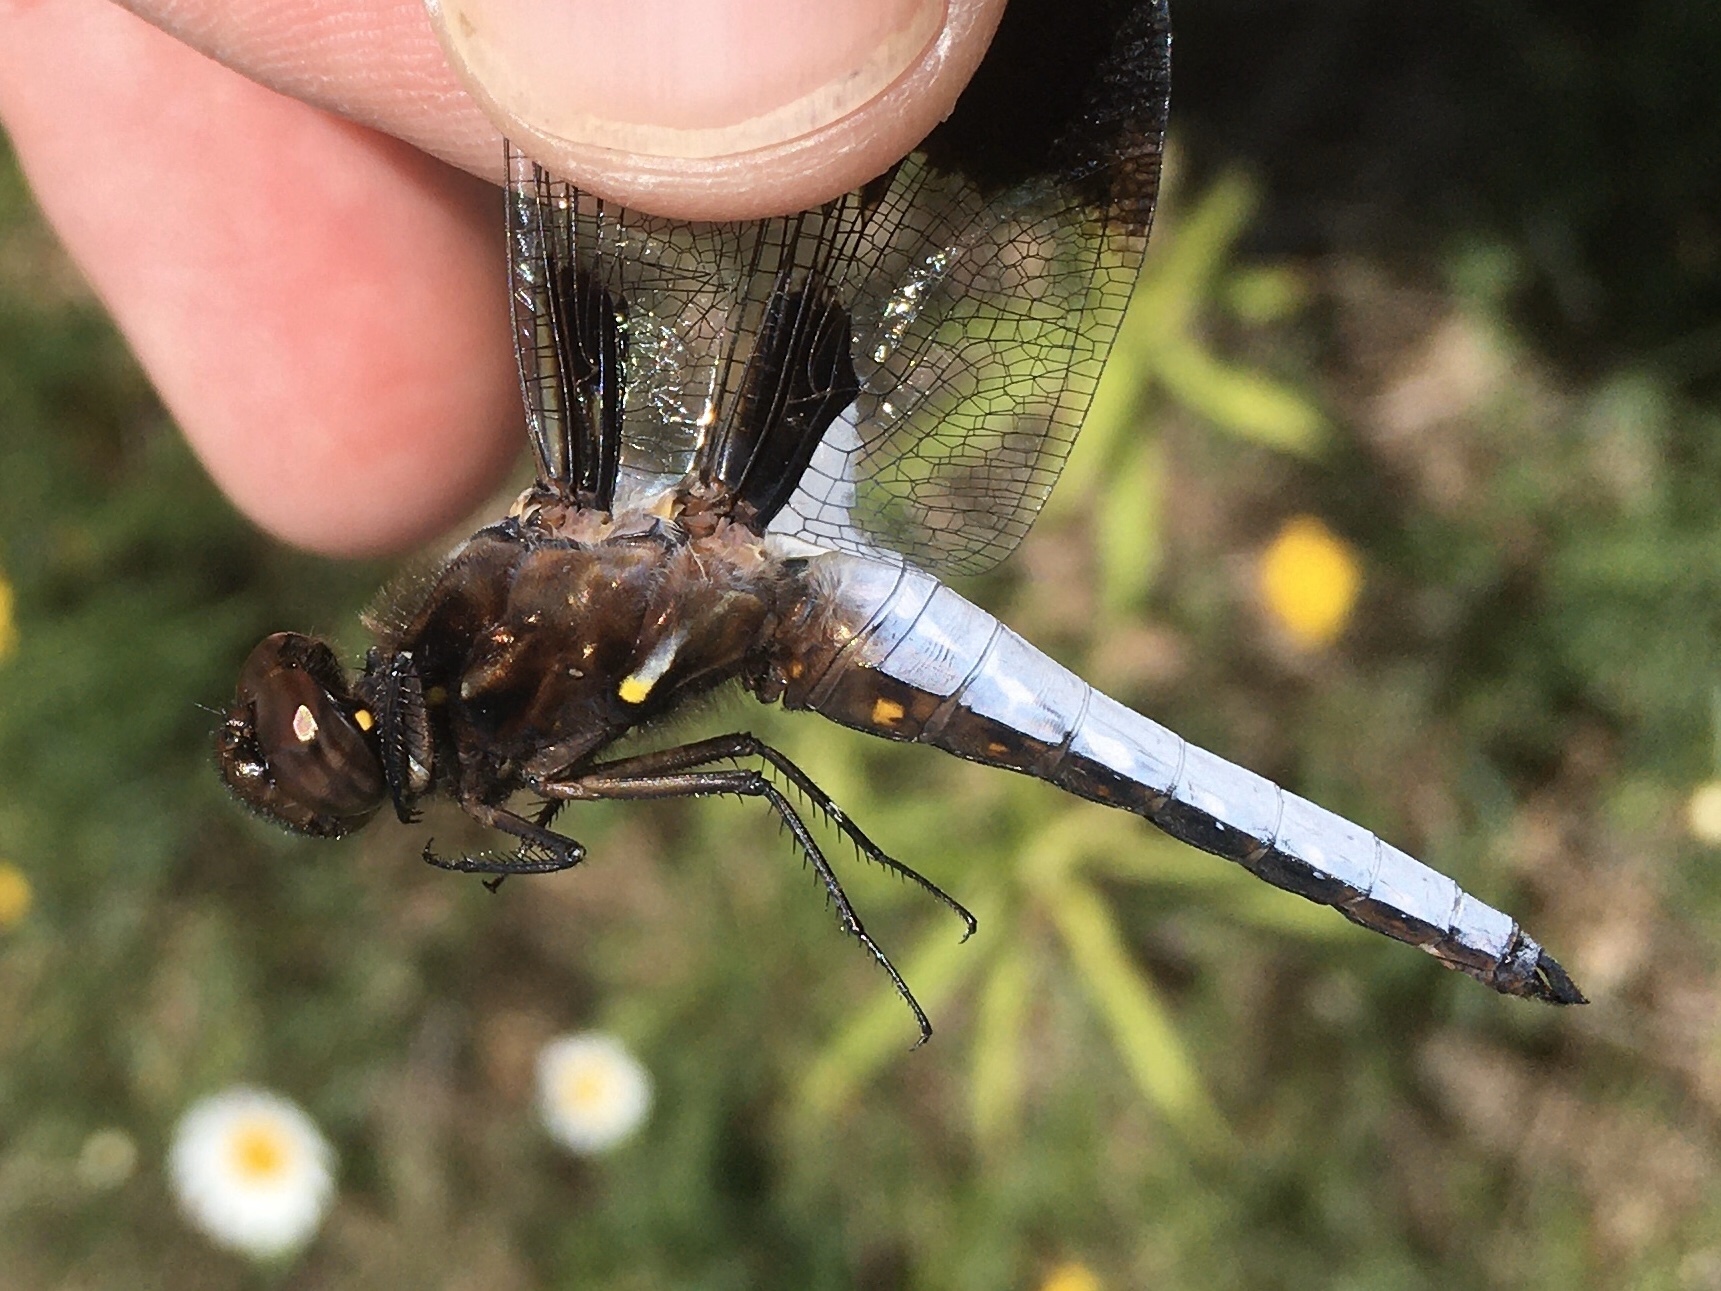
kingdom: Animalia
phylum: Arthropoda
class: Insecta
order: Odonata
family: Libellulidae
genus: Plathemis
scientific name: Plathemis lydia
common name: Common whitetail
